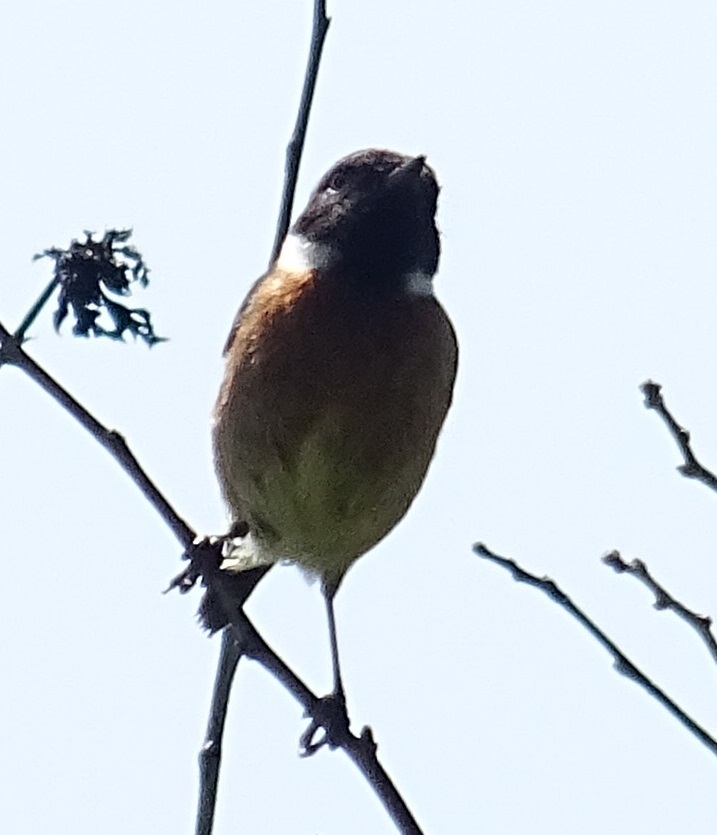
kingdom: Animalia
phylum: Chordata
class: Aves
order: Passeriformes
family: Muscicapidae
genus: Saxicola
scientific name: Saxicola rubicola
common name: European stonechat
